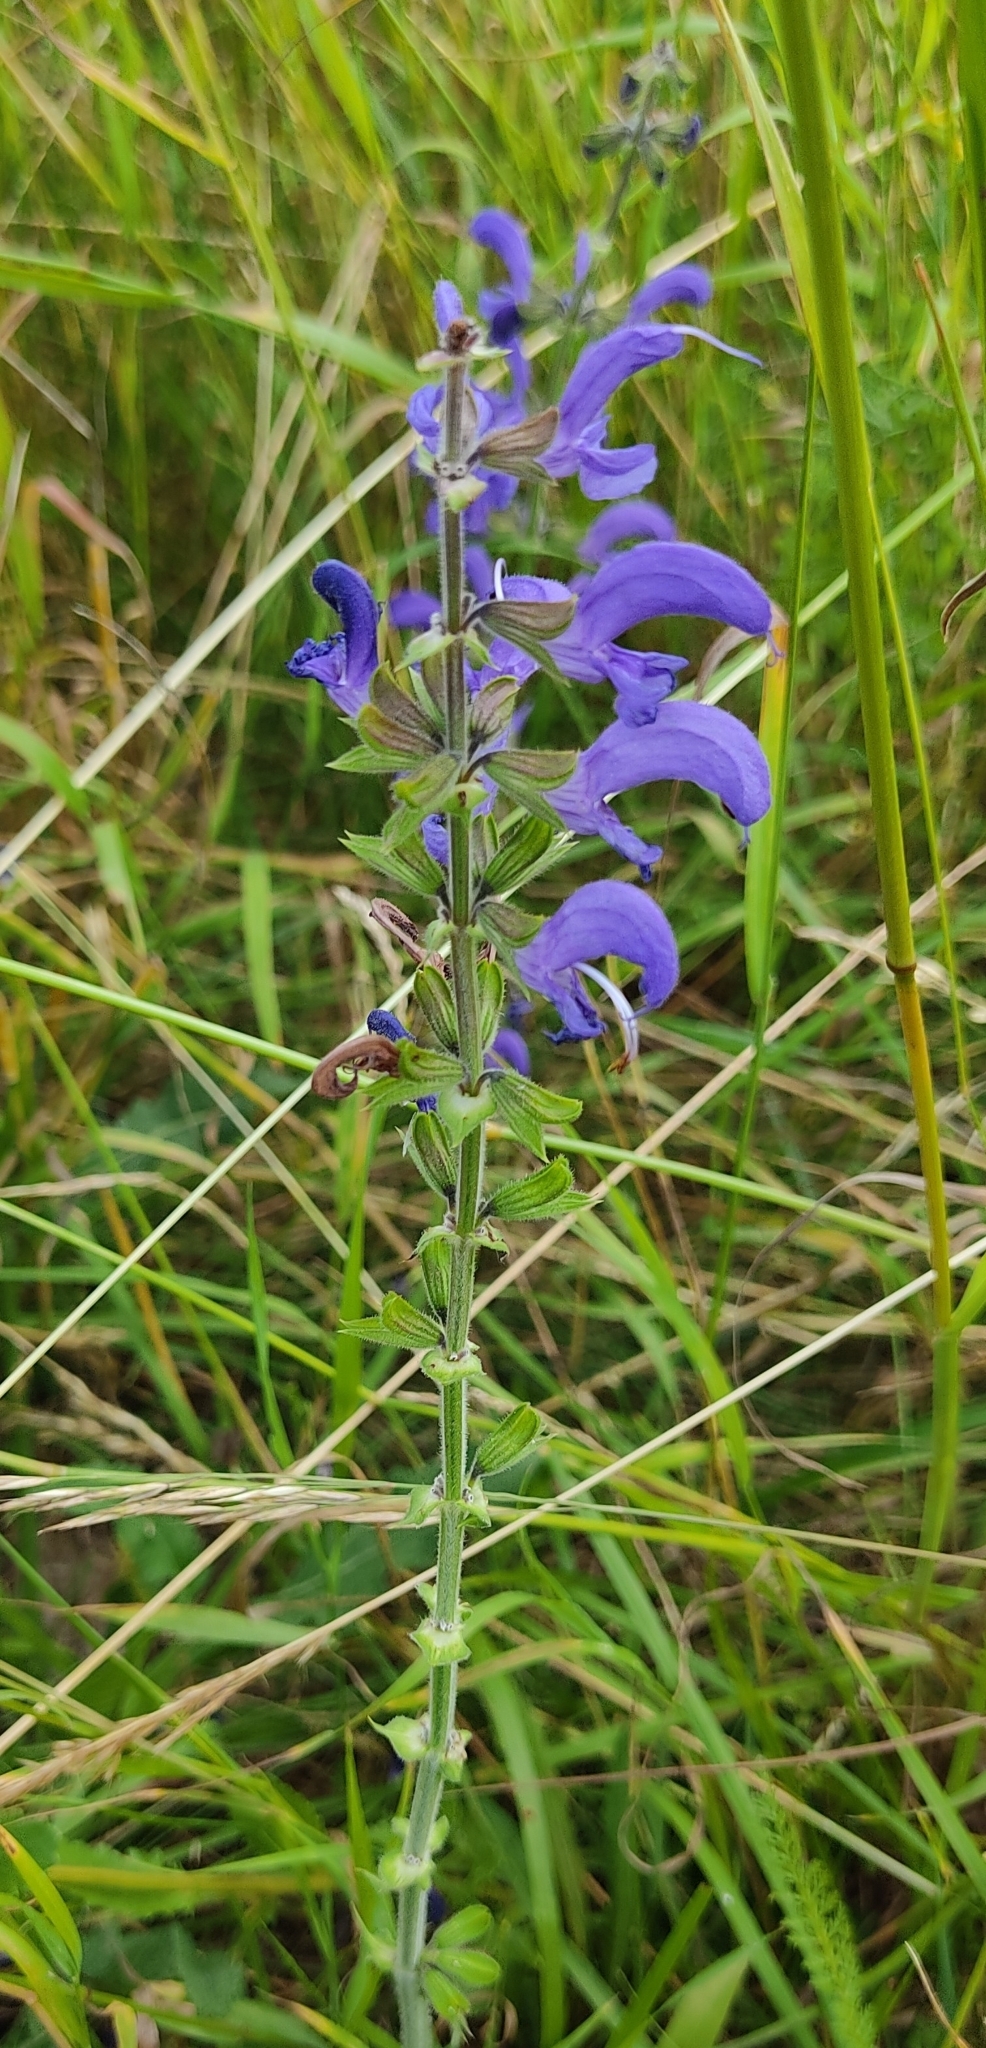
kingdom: Plantae
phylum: Tracheophyta
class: Magnoliopsida
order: Lamiales
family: Lamiaceae
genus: Salvia
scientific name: Salvia pratensis
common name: Meadow sage
